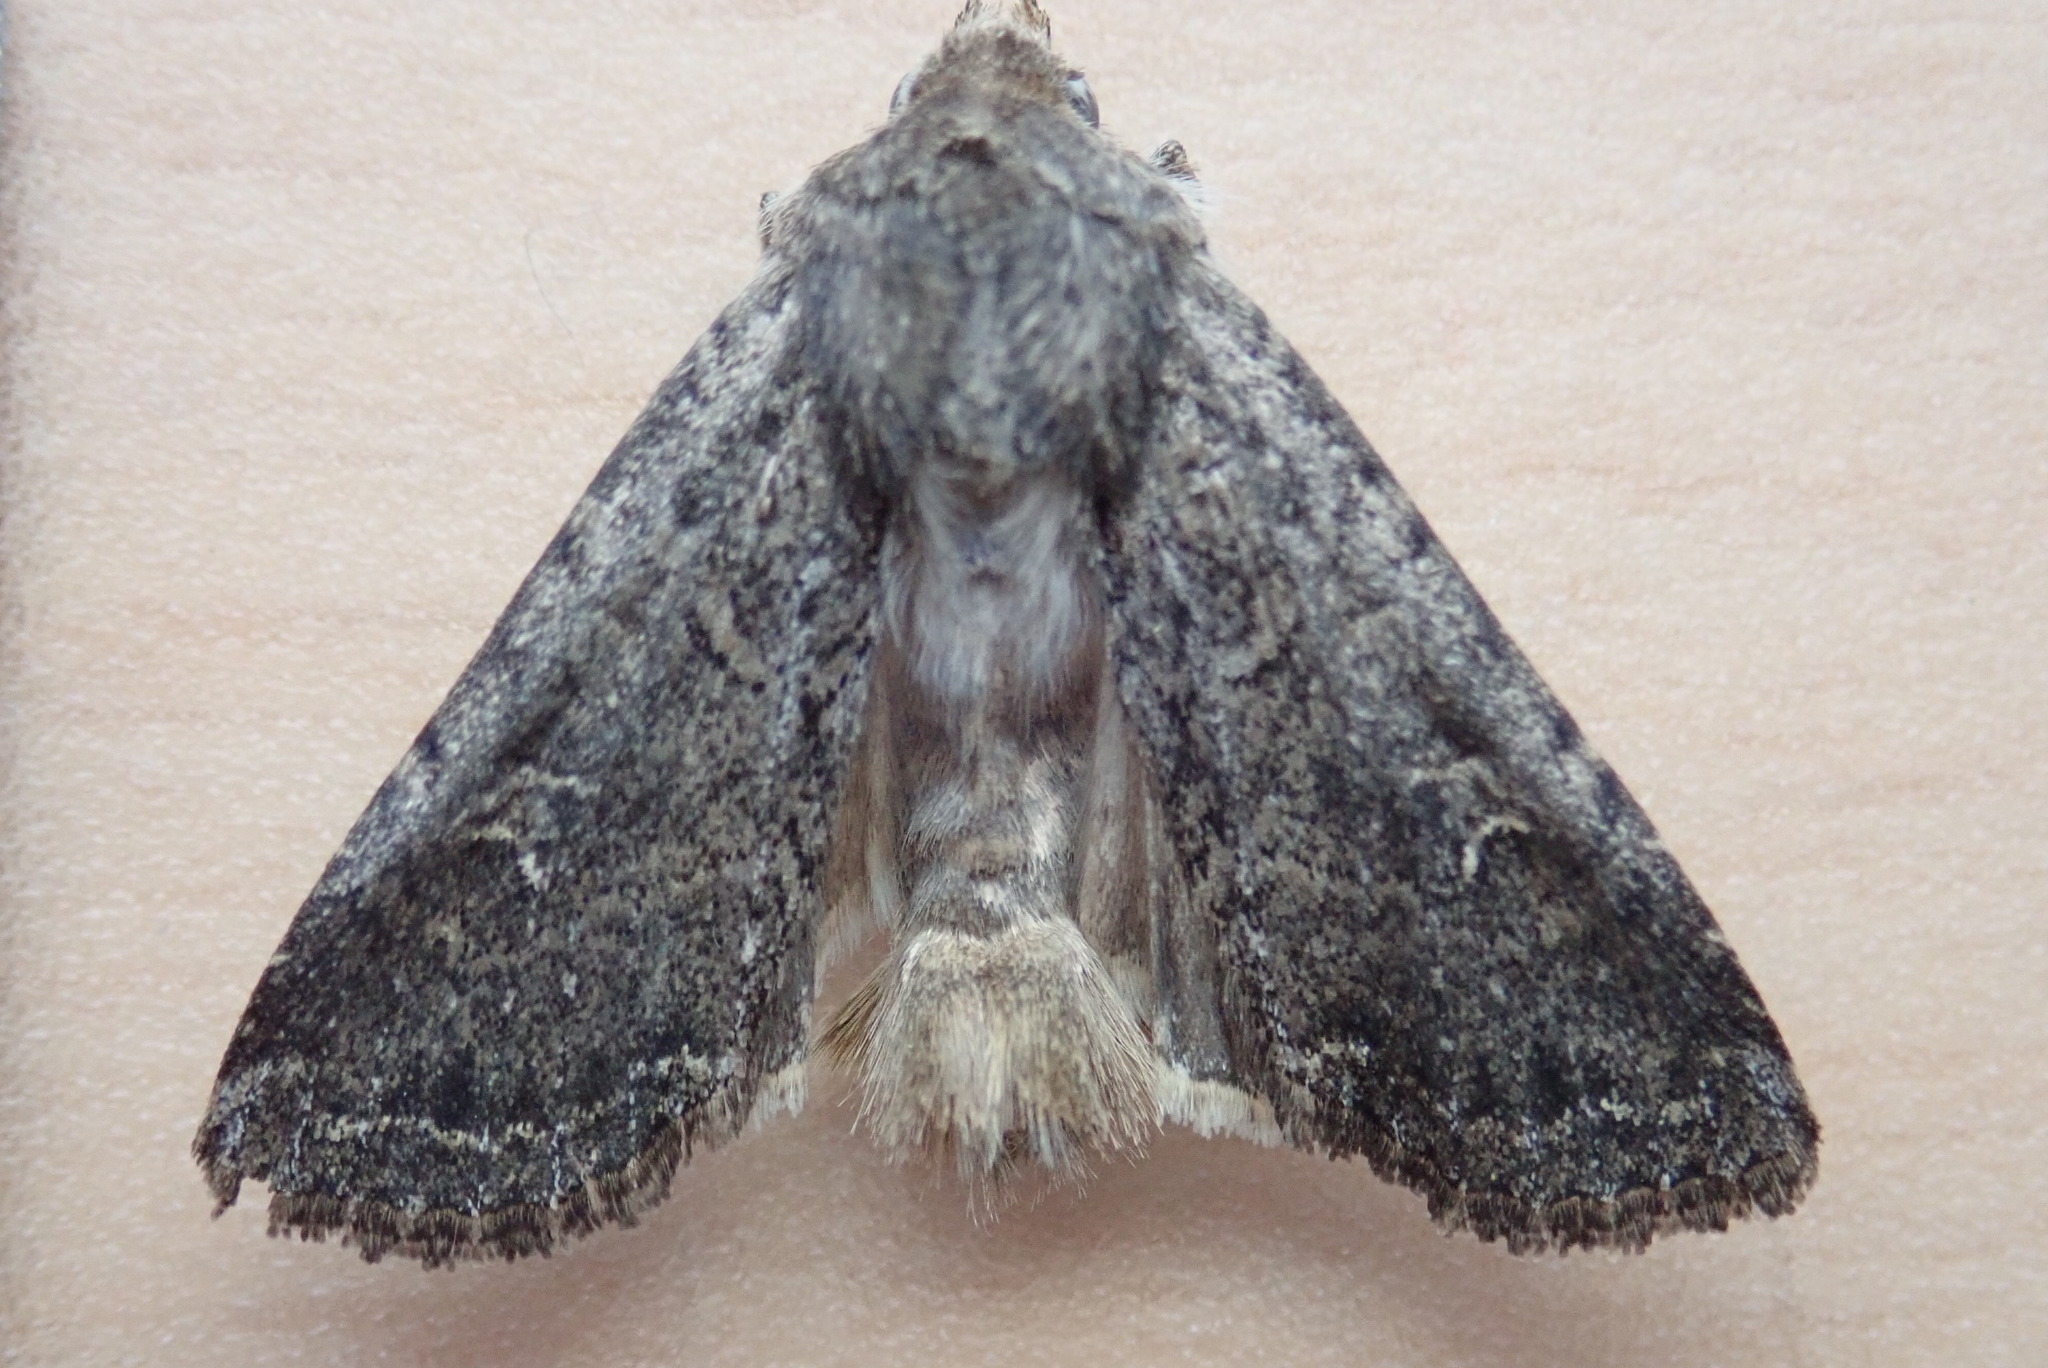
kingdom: Animalia
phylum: Arthropoda
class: Insecta
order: Lepidoptera
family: Noctuidae
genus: Apamea
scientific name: Apamea devastator
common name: Glassy cutworm
